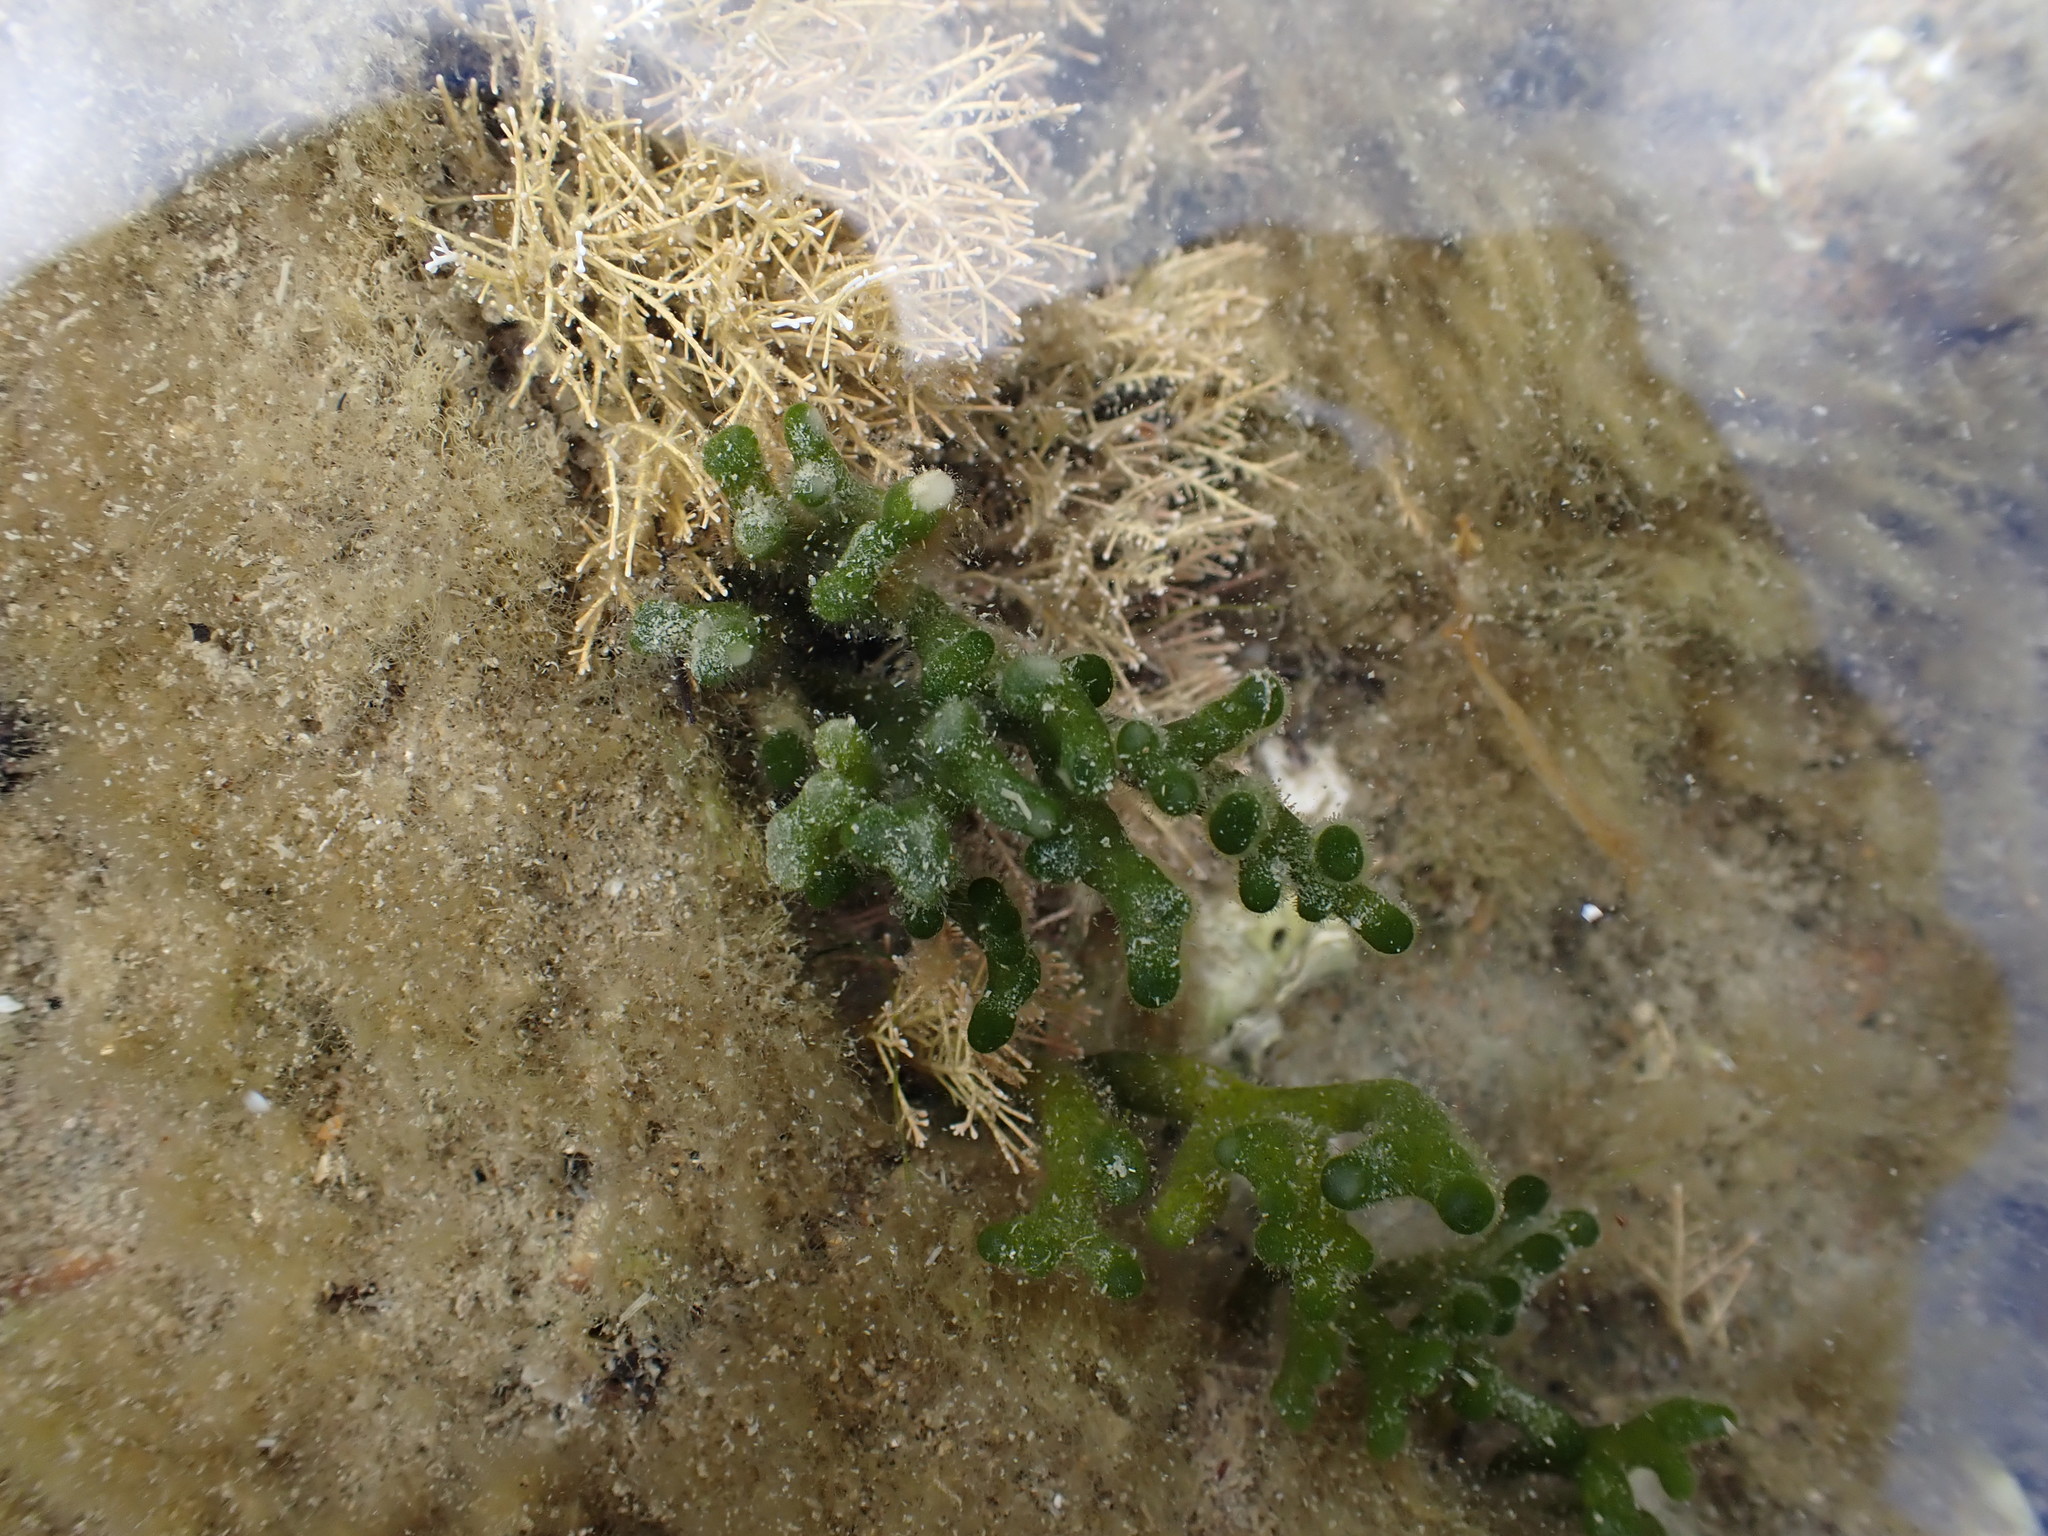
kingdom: Plantae
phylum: Chlorophyta
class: Ulvophyceae
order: Bryopsidales
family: Codiaceae
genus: Codium
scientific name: Codium fragile
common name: Dead man's fingers
